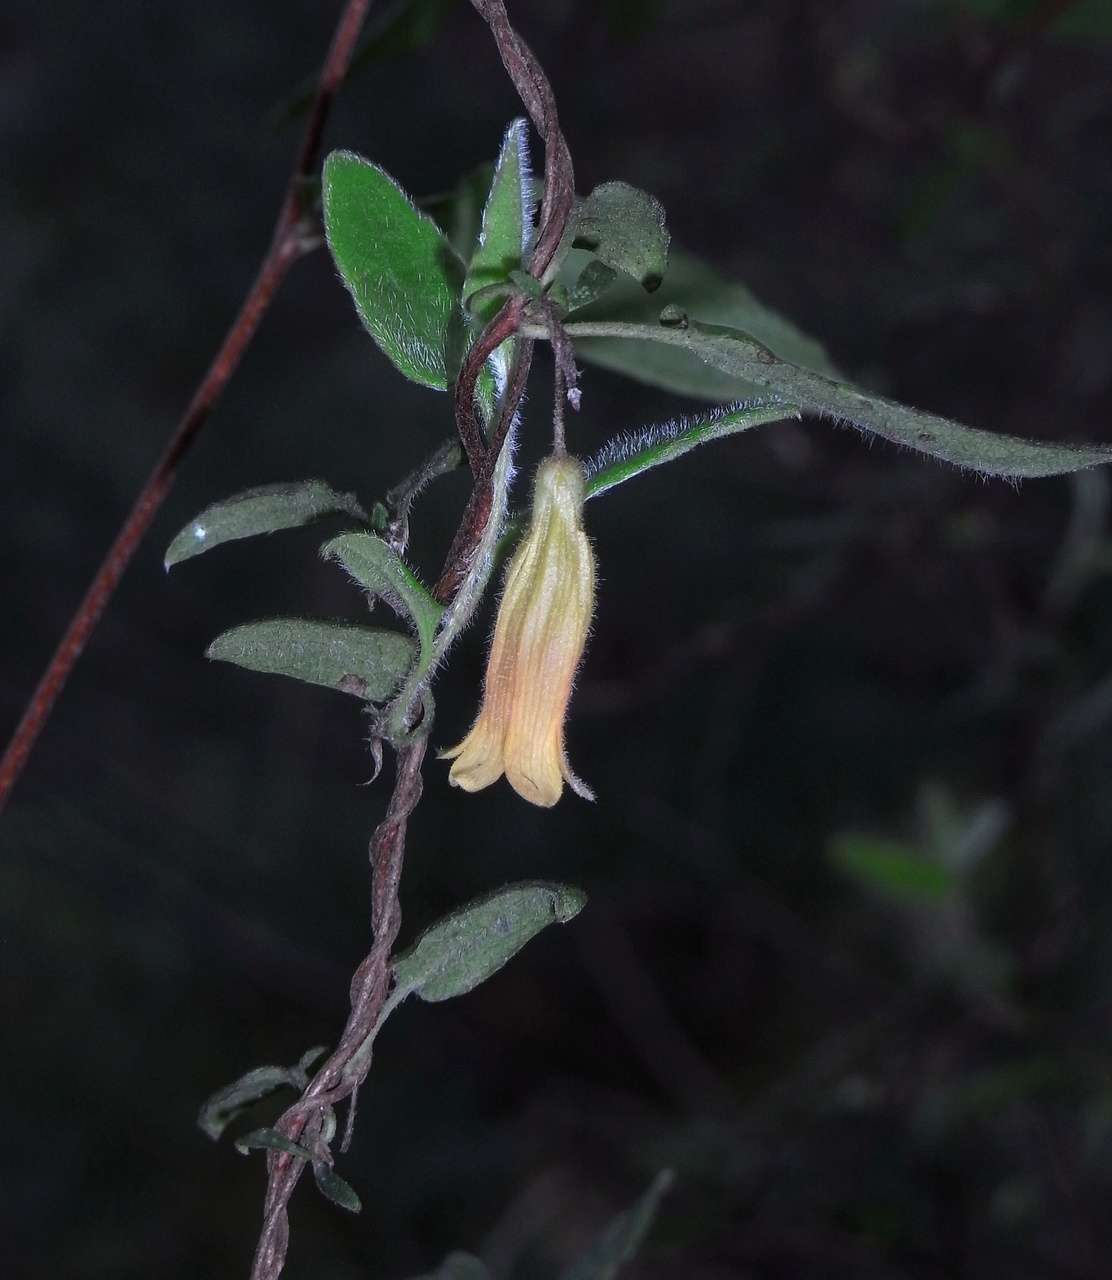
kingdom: Plantae
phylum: Tracheophyta
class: Magnoliopsida
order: Apiales
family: Pittosporaceae
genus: Marianthus
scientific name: Marianthus bignoniaceus
